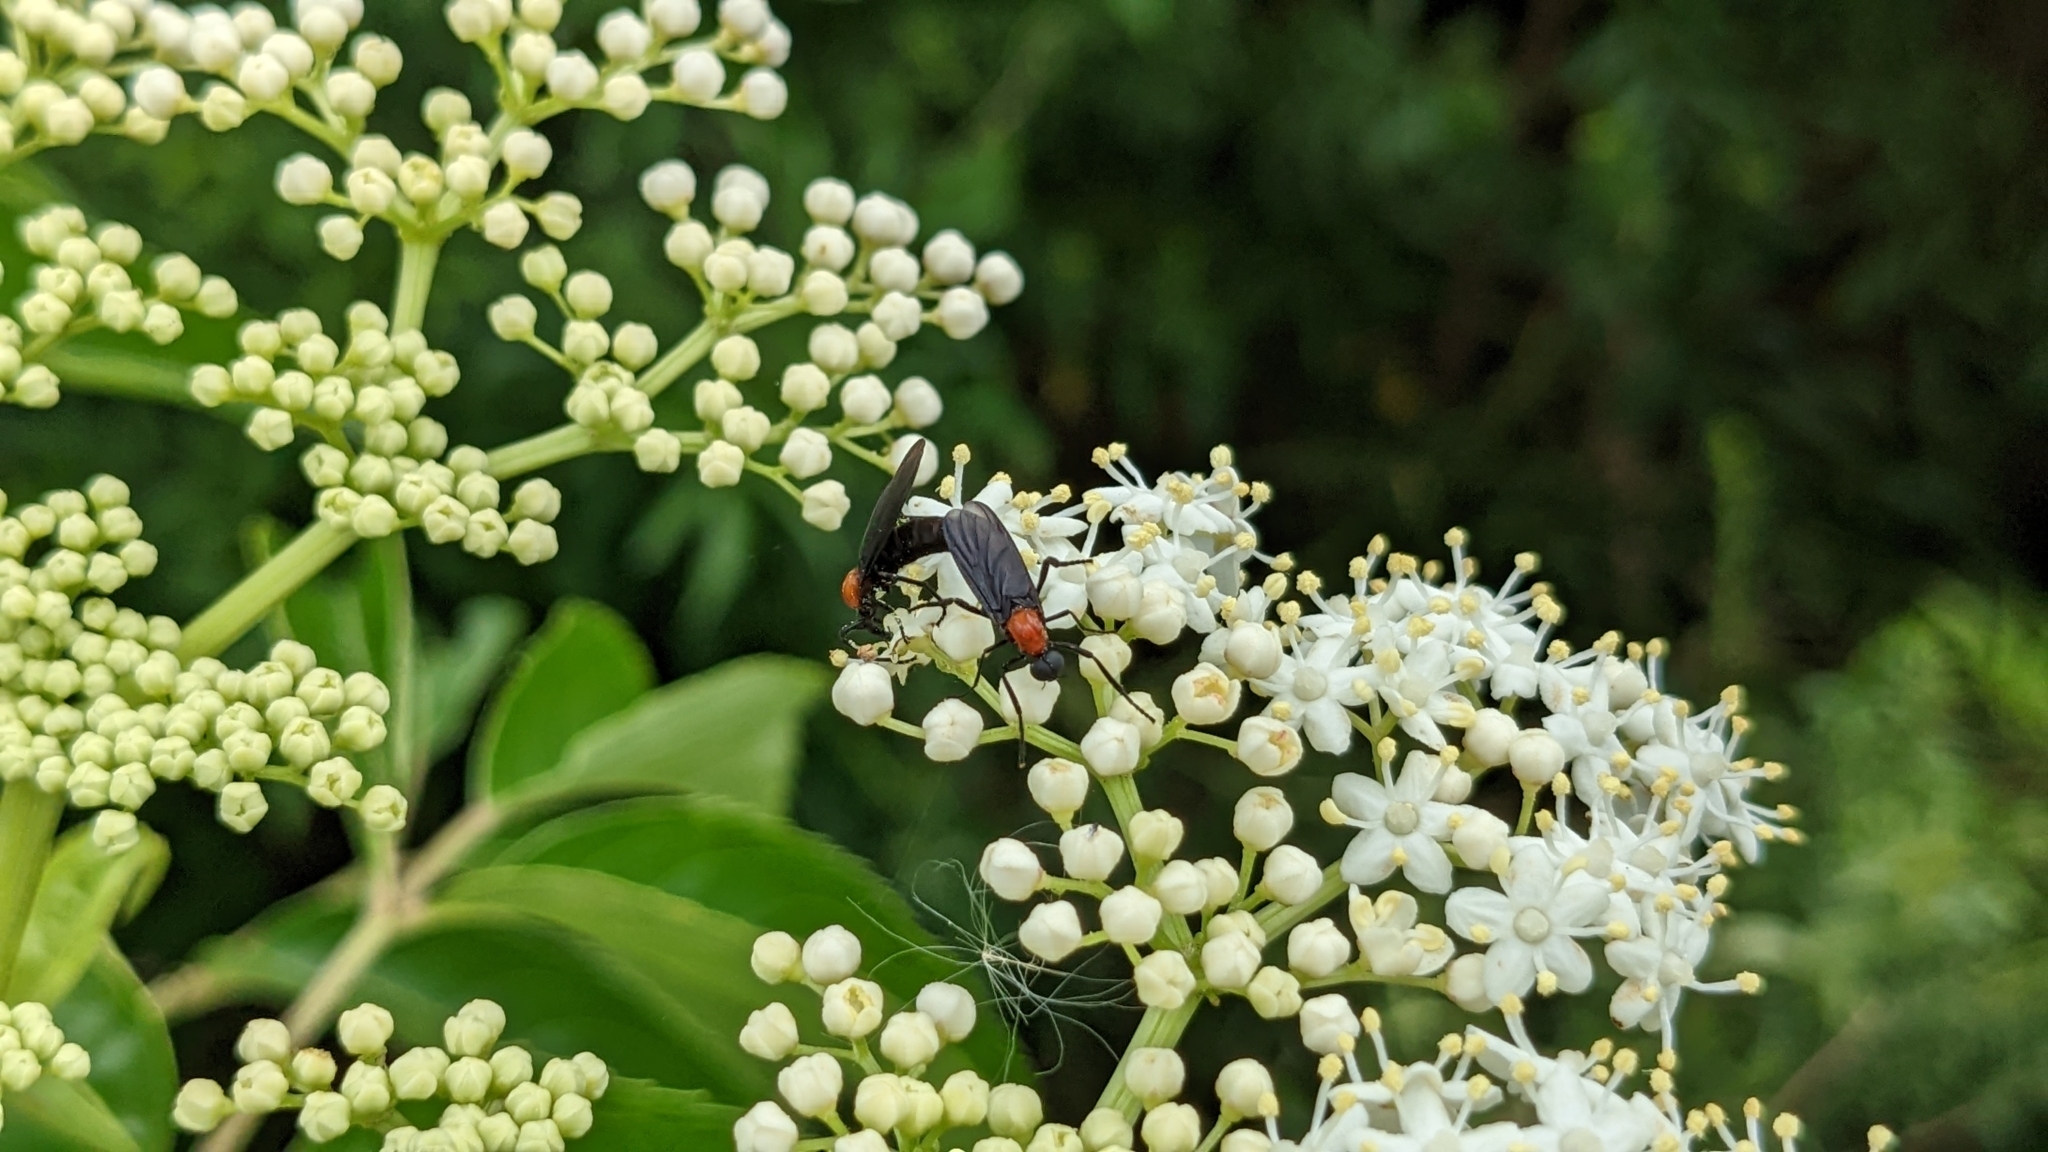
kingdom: Plantae
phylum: Tracheophyta
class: Magnoliopsida
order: Dipsacales
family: Viburnaceae
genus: Sambucus
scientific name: Sambucus canadensis
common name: American elder
